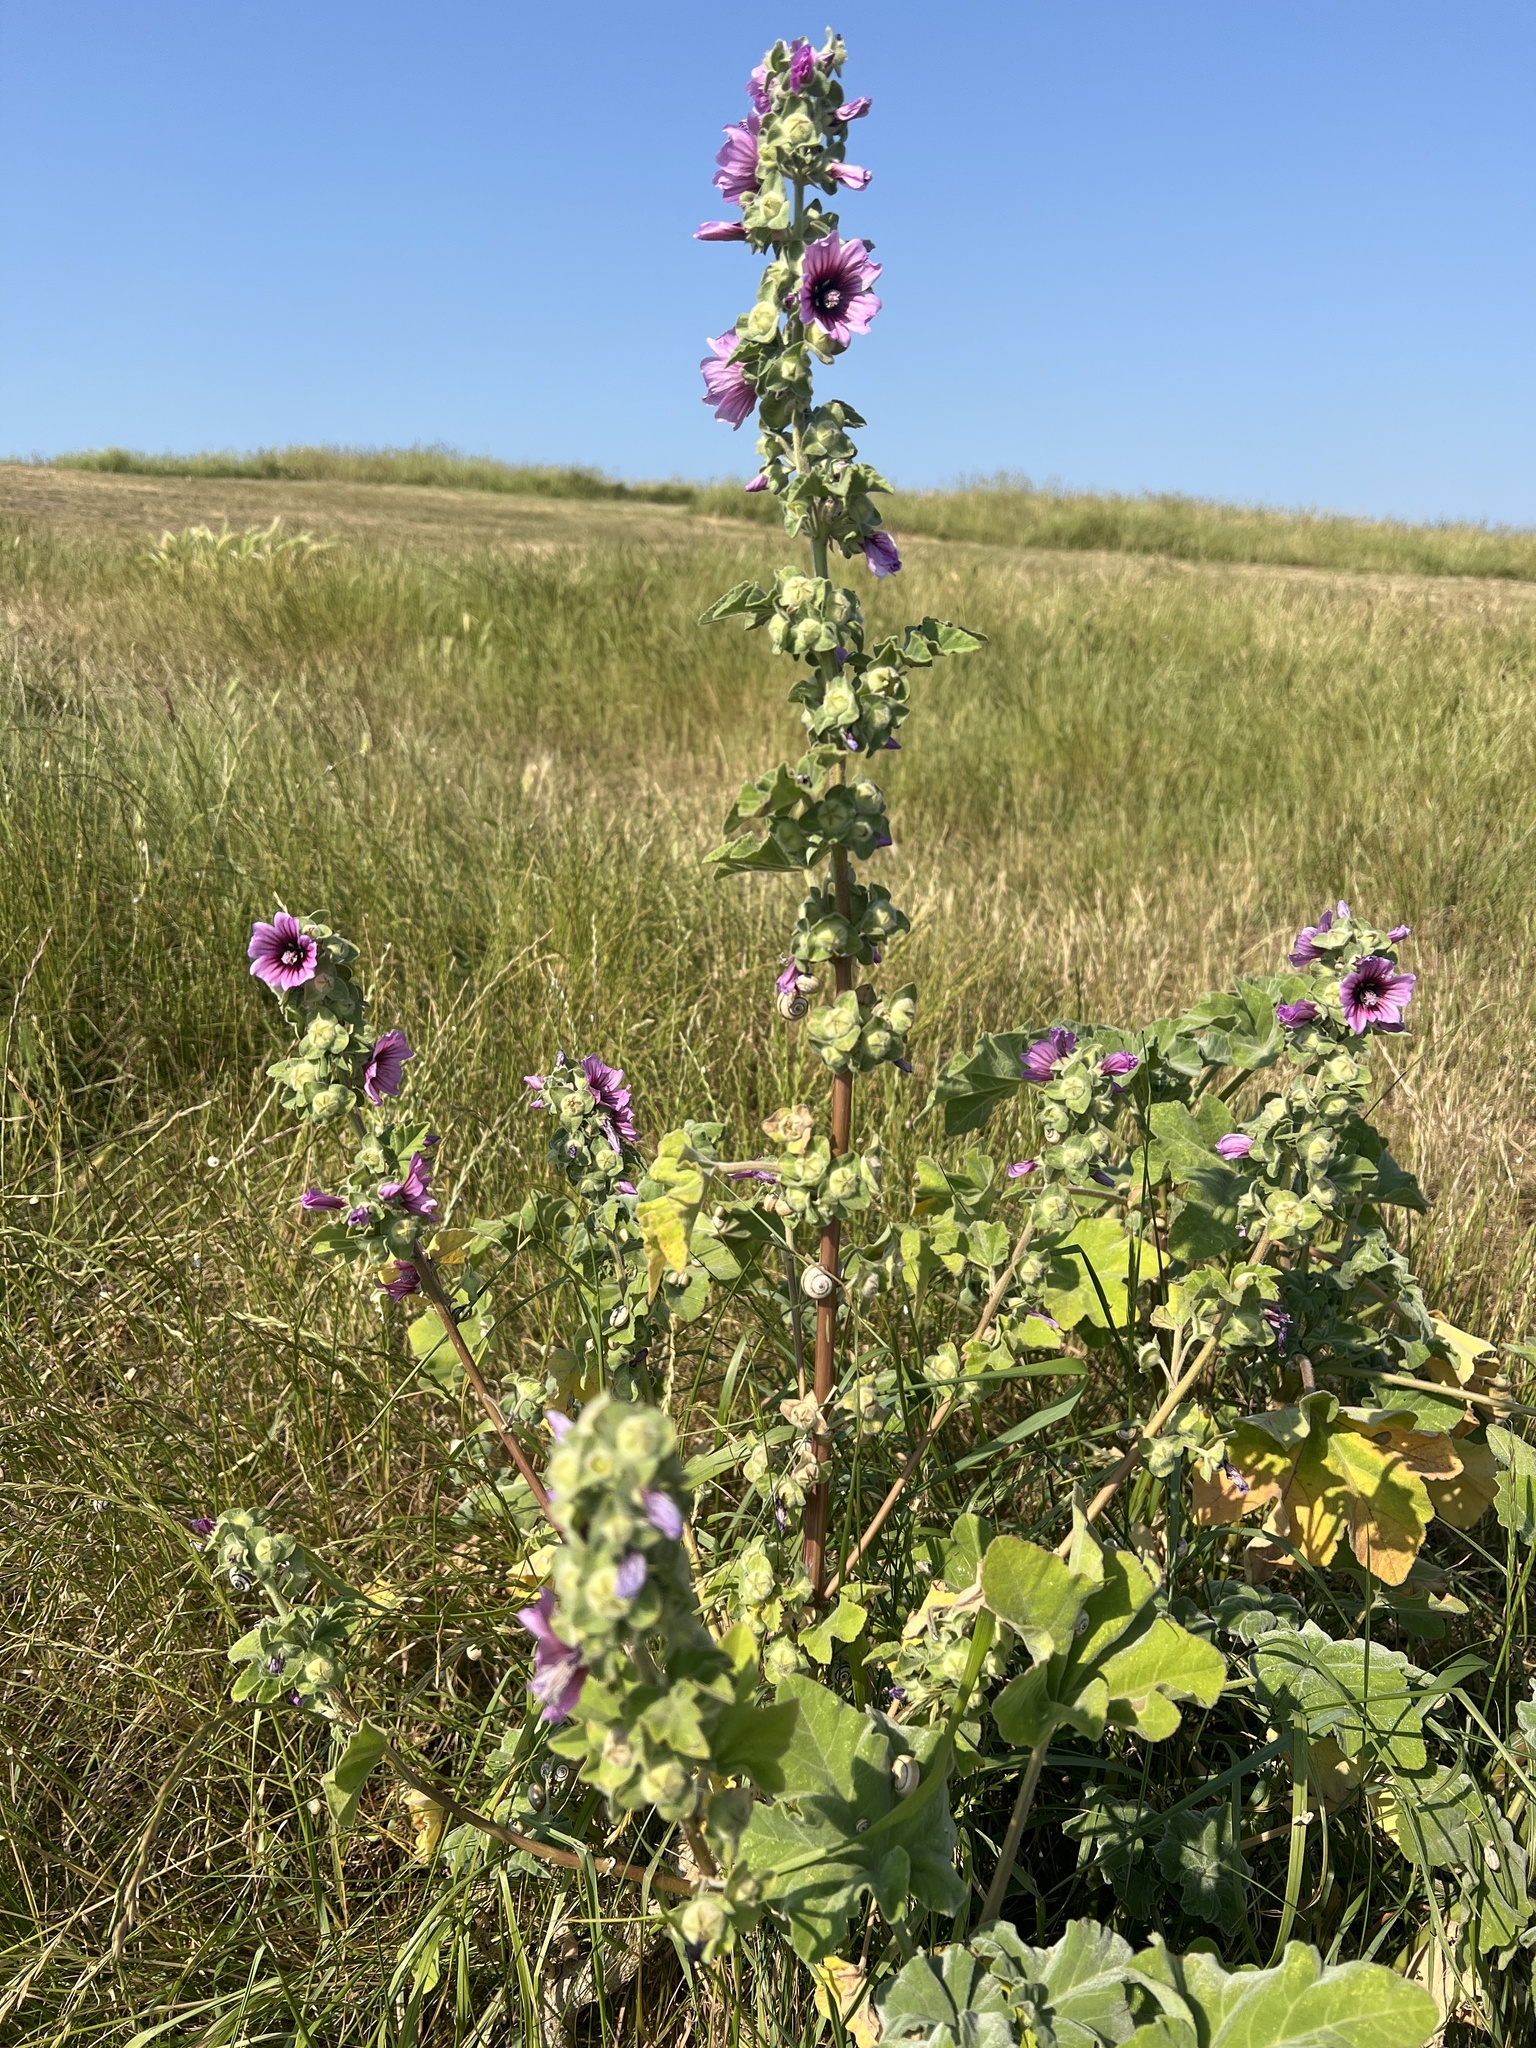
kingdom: Plantae
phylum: Tracheophyta
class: Magnoliopsida
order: Malvales
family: Malvaceae
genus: Malva
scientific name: Malva arborea
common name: Tree mallow
